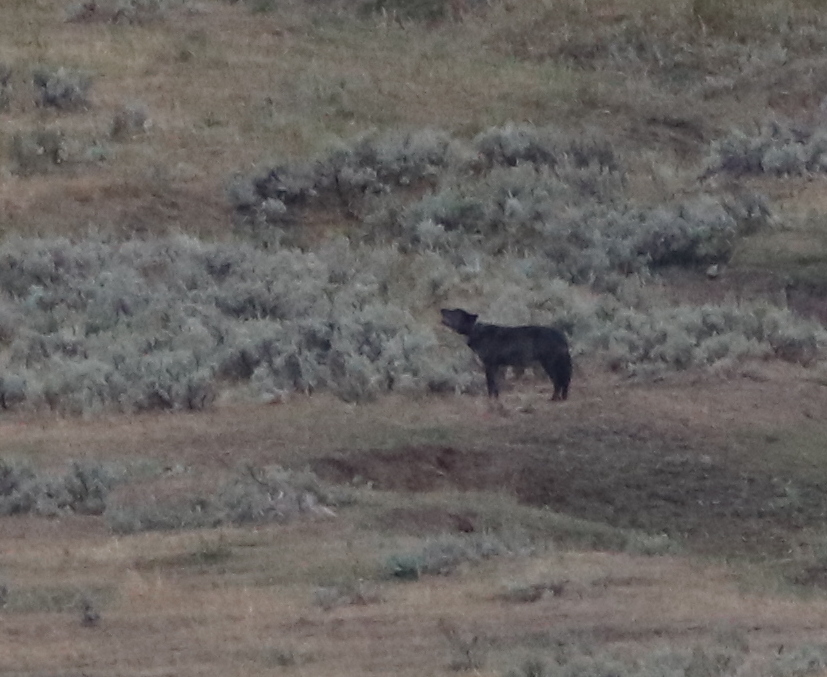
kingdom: Animalia
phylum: Chordata
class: Mammalia
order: Carnivora
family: Canidae
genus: Canis
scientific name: Canis lupus
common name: Gray wolf
